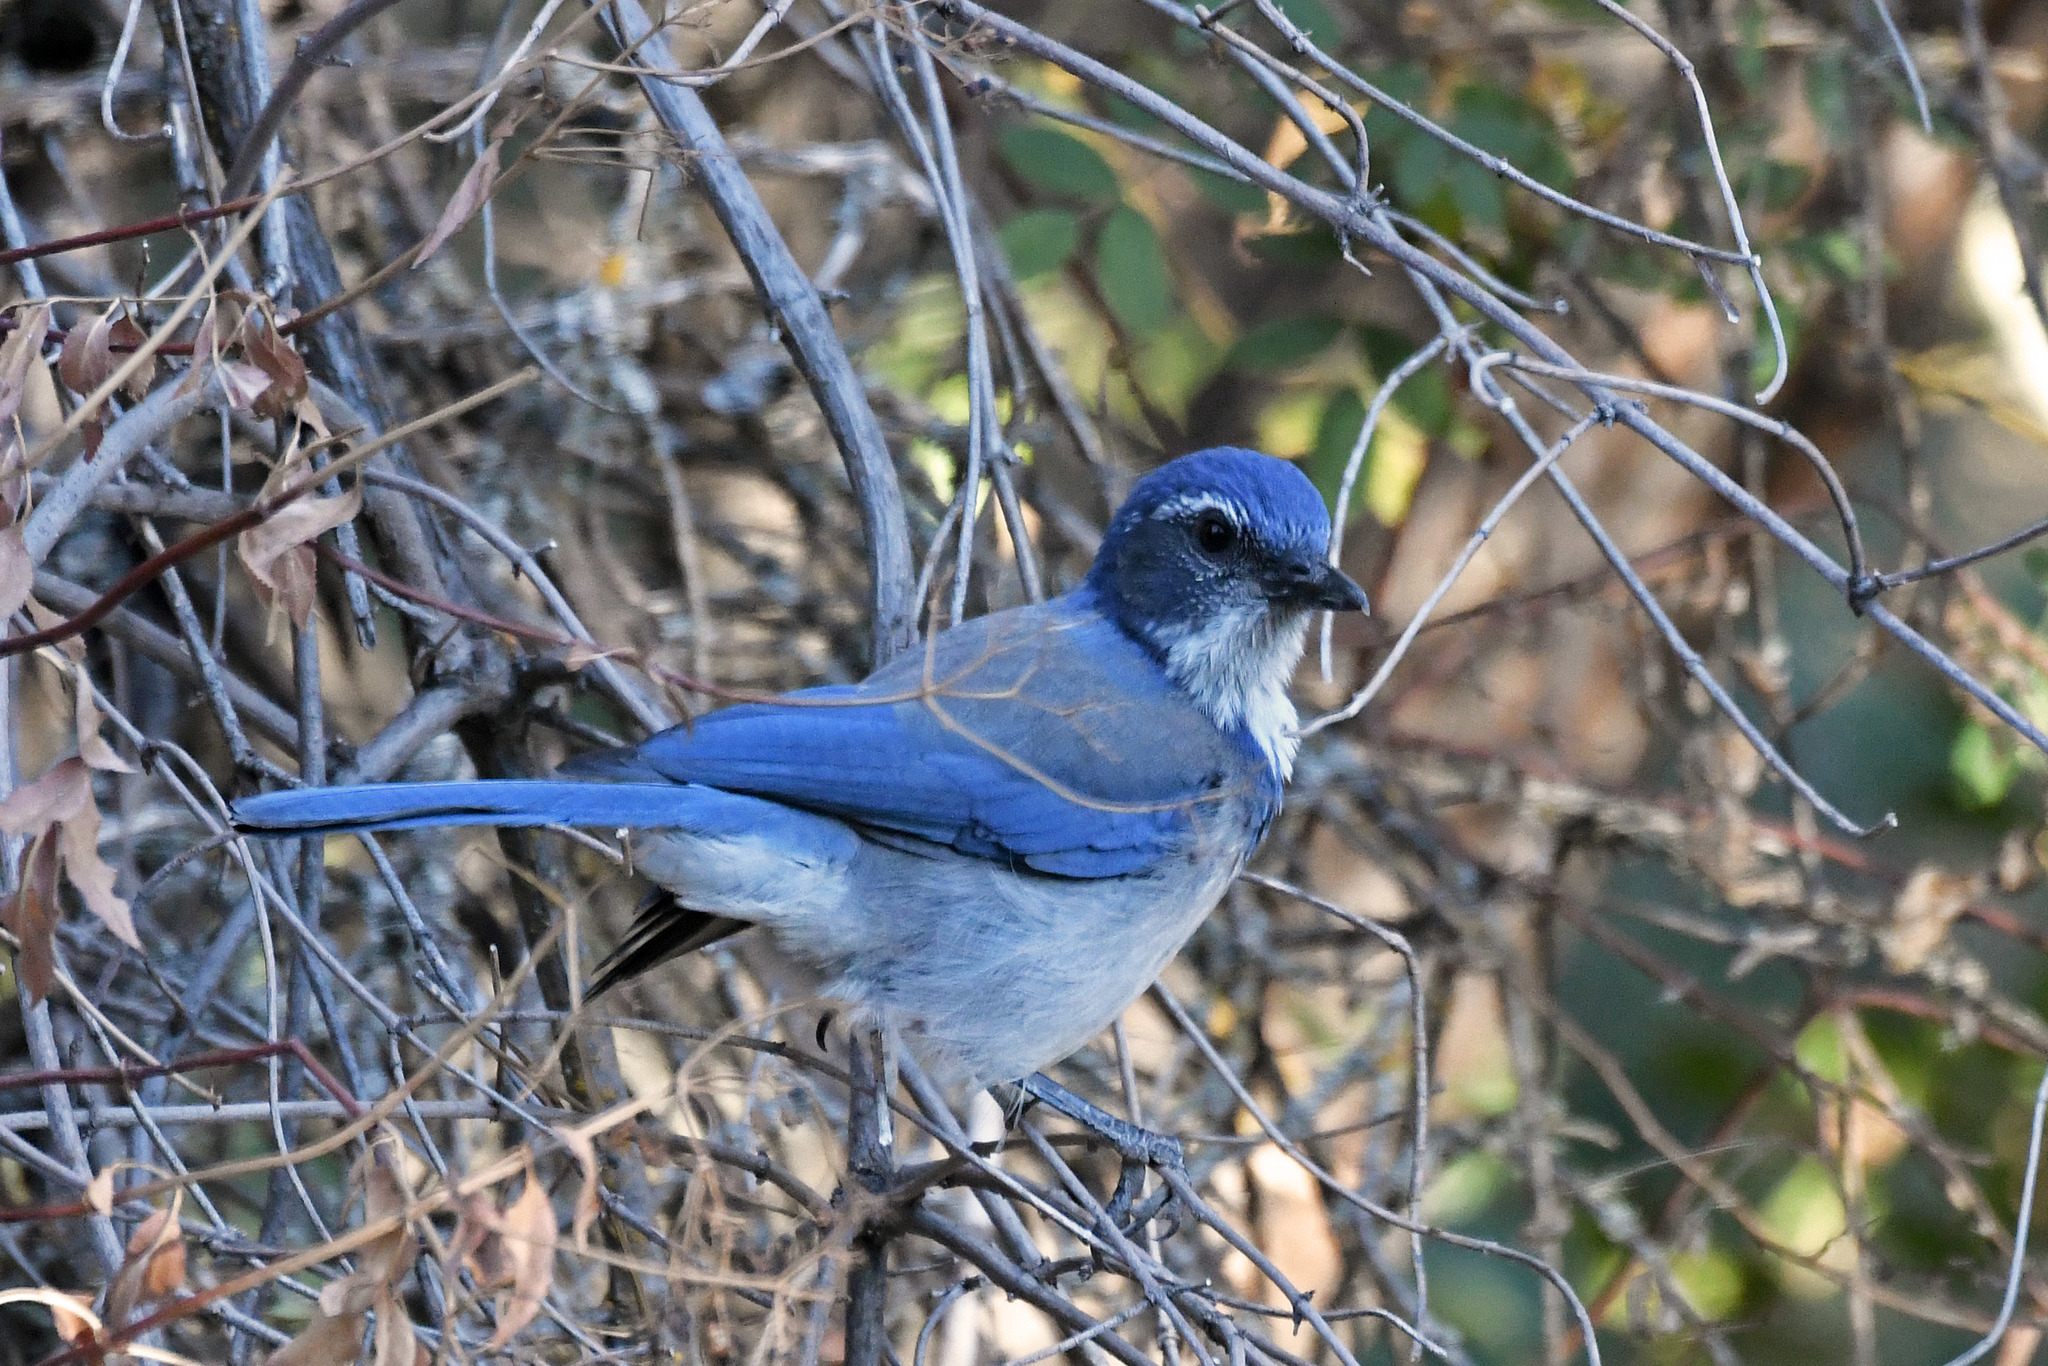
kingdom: Animalia
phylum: Chordata
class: Aves
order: Passeriformes
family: Corvidae
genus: Aphelocoma
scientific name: Aphelocoma californica
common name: California scrub-jay
